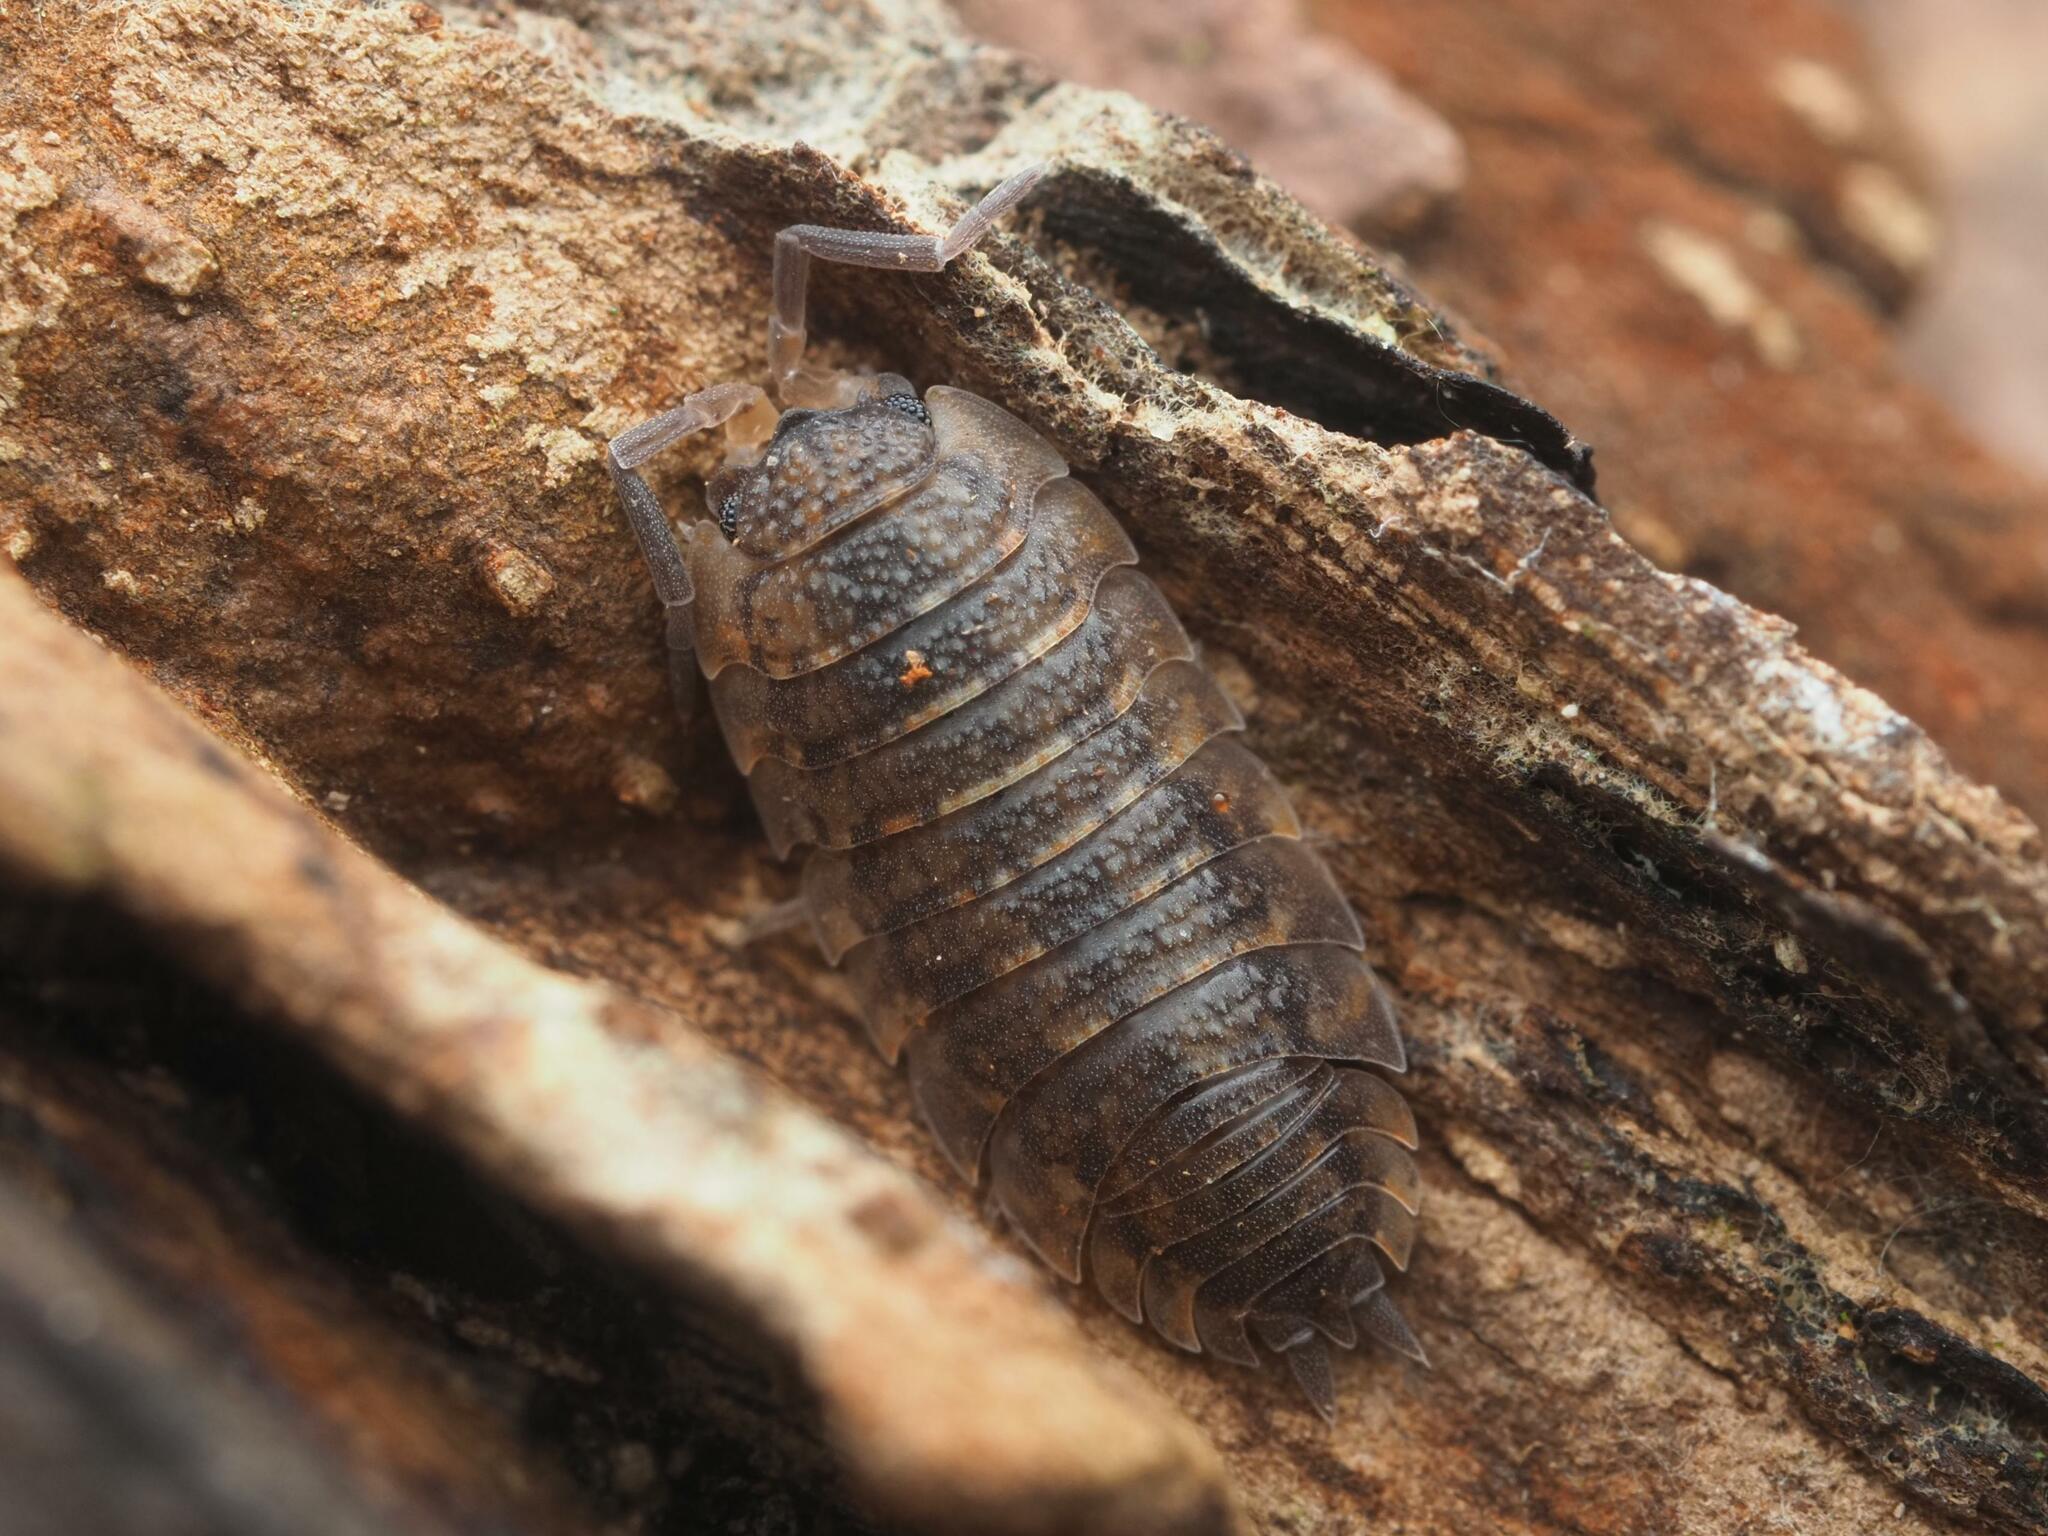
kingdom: Animalia
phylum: Arthropoda
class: Malacostraca
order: Isopoda
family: Porcellionidae
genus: Porcellio
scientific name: Porcellio scaber
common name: Common rough woodlouse
